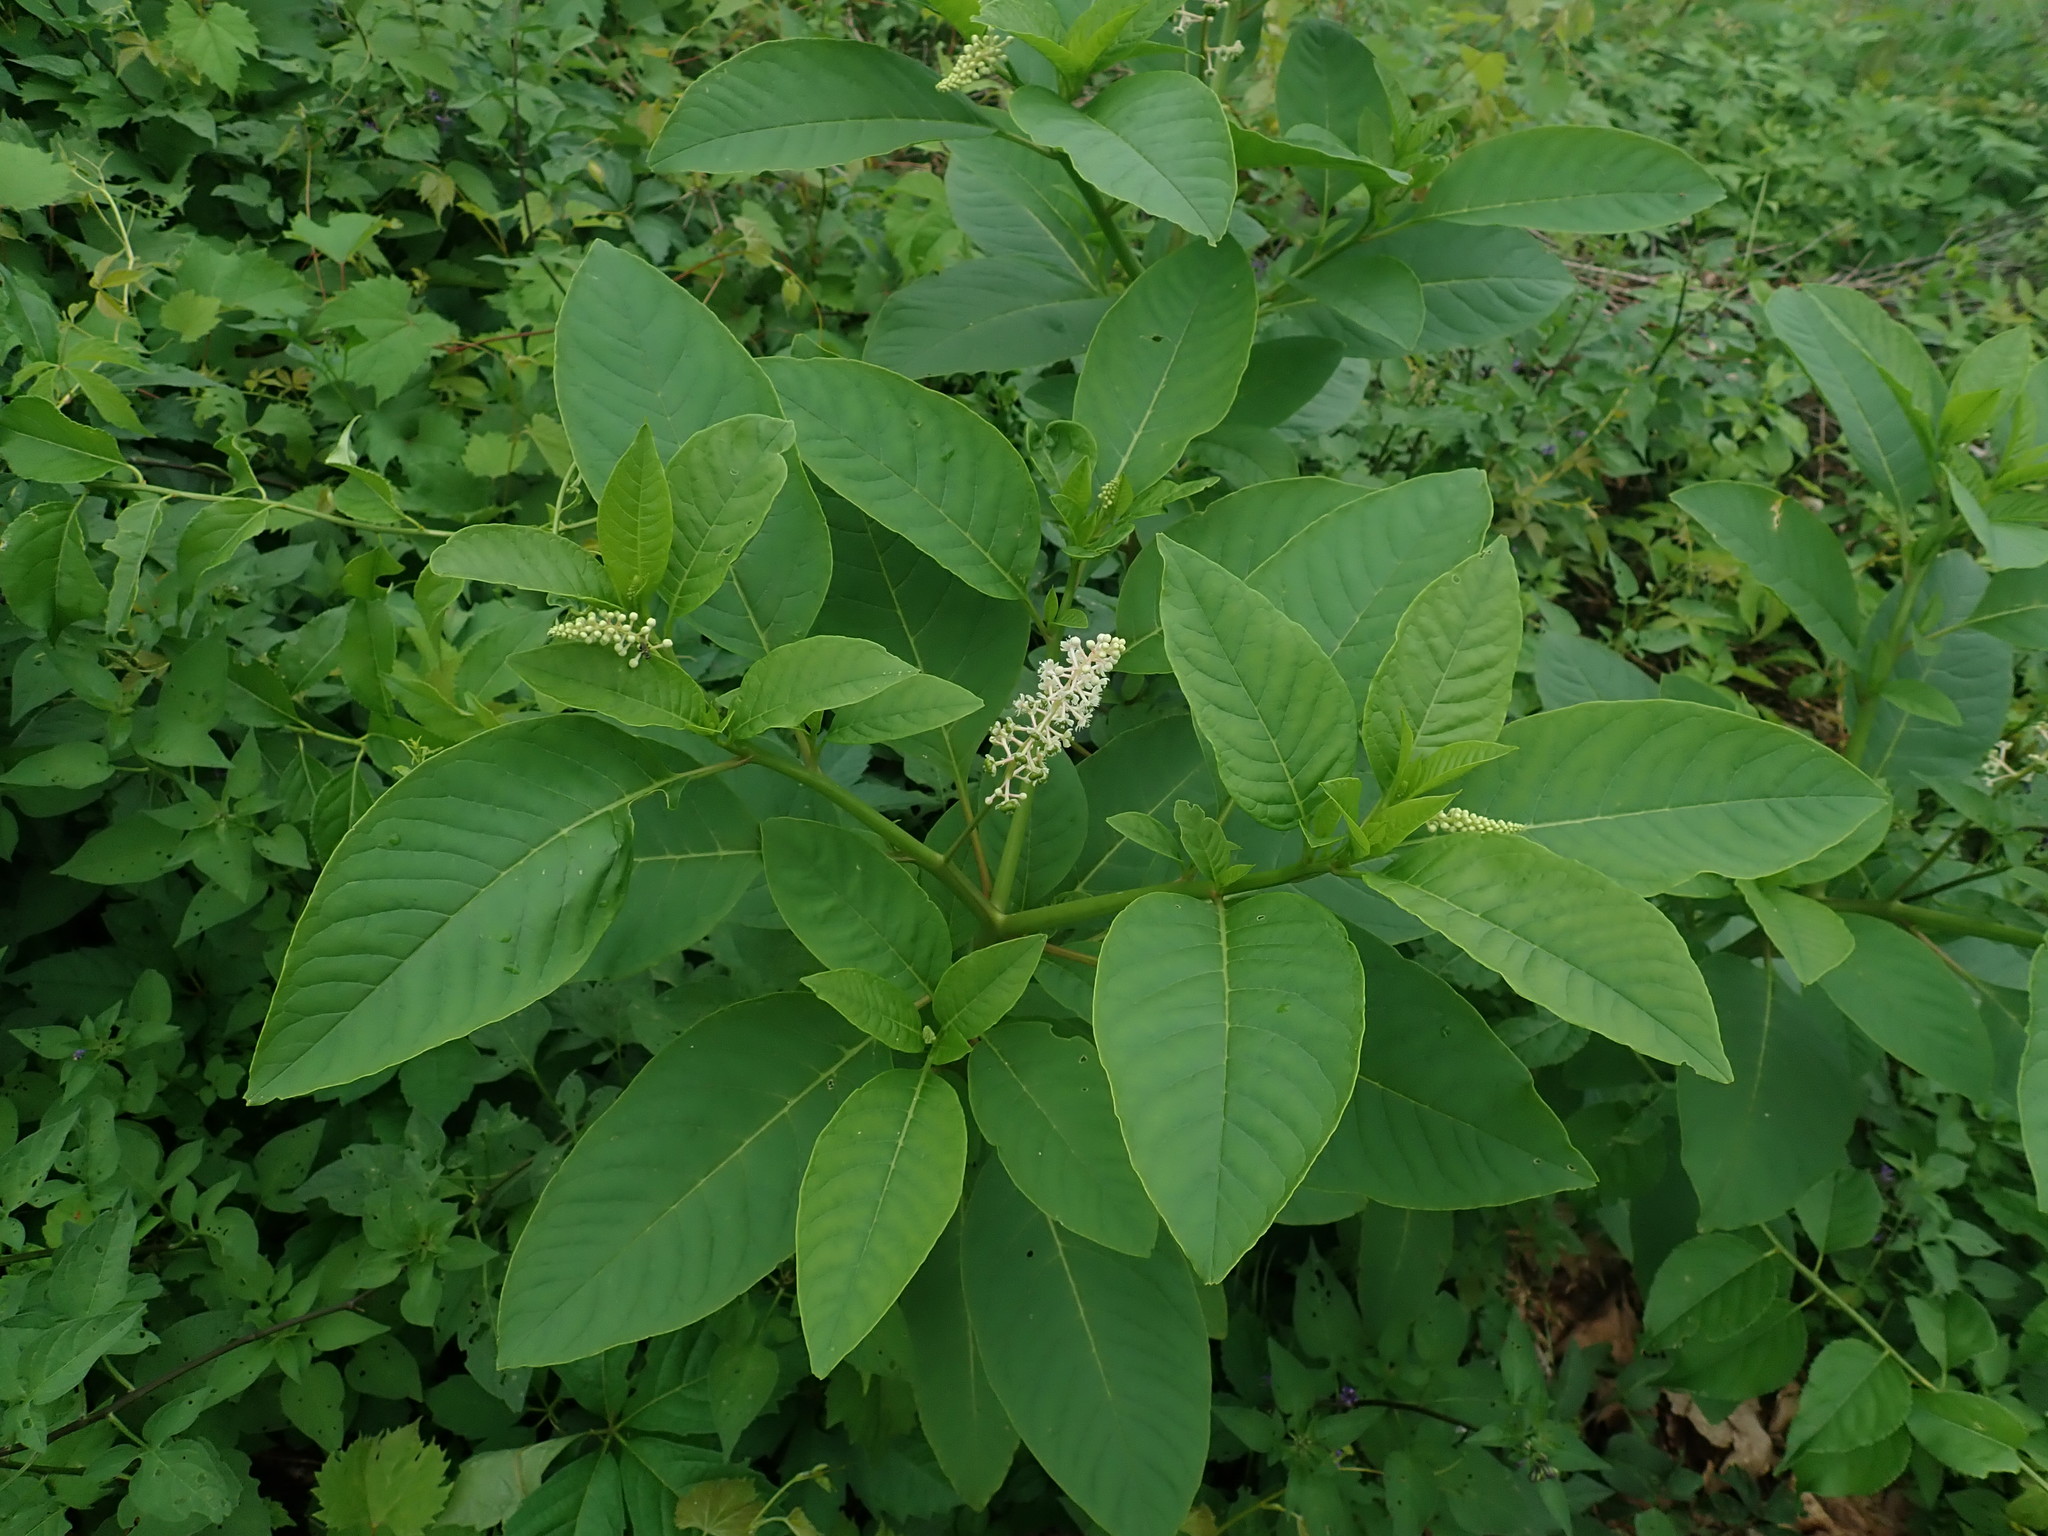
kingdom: Plantae
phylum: Tracheophyta
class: Magnoliopsida
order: Caryophyllales
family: Phytolaccaceae
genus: Phytolacca
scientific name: Phytolacca americana
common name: American pokeweed
